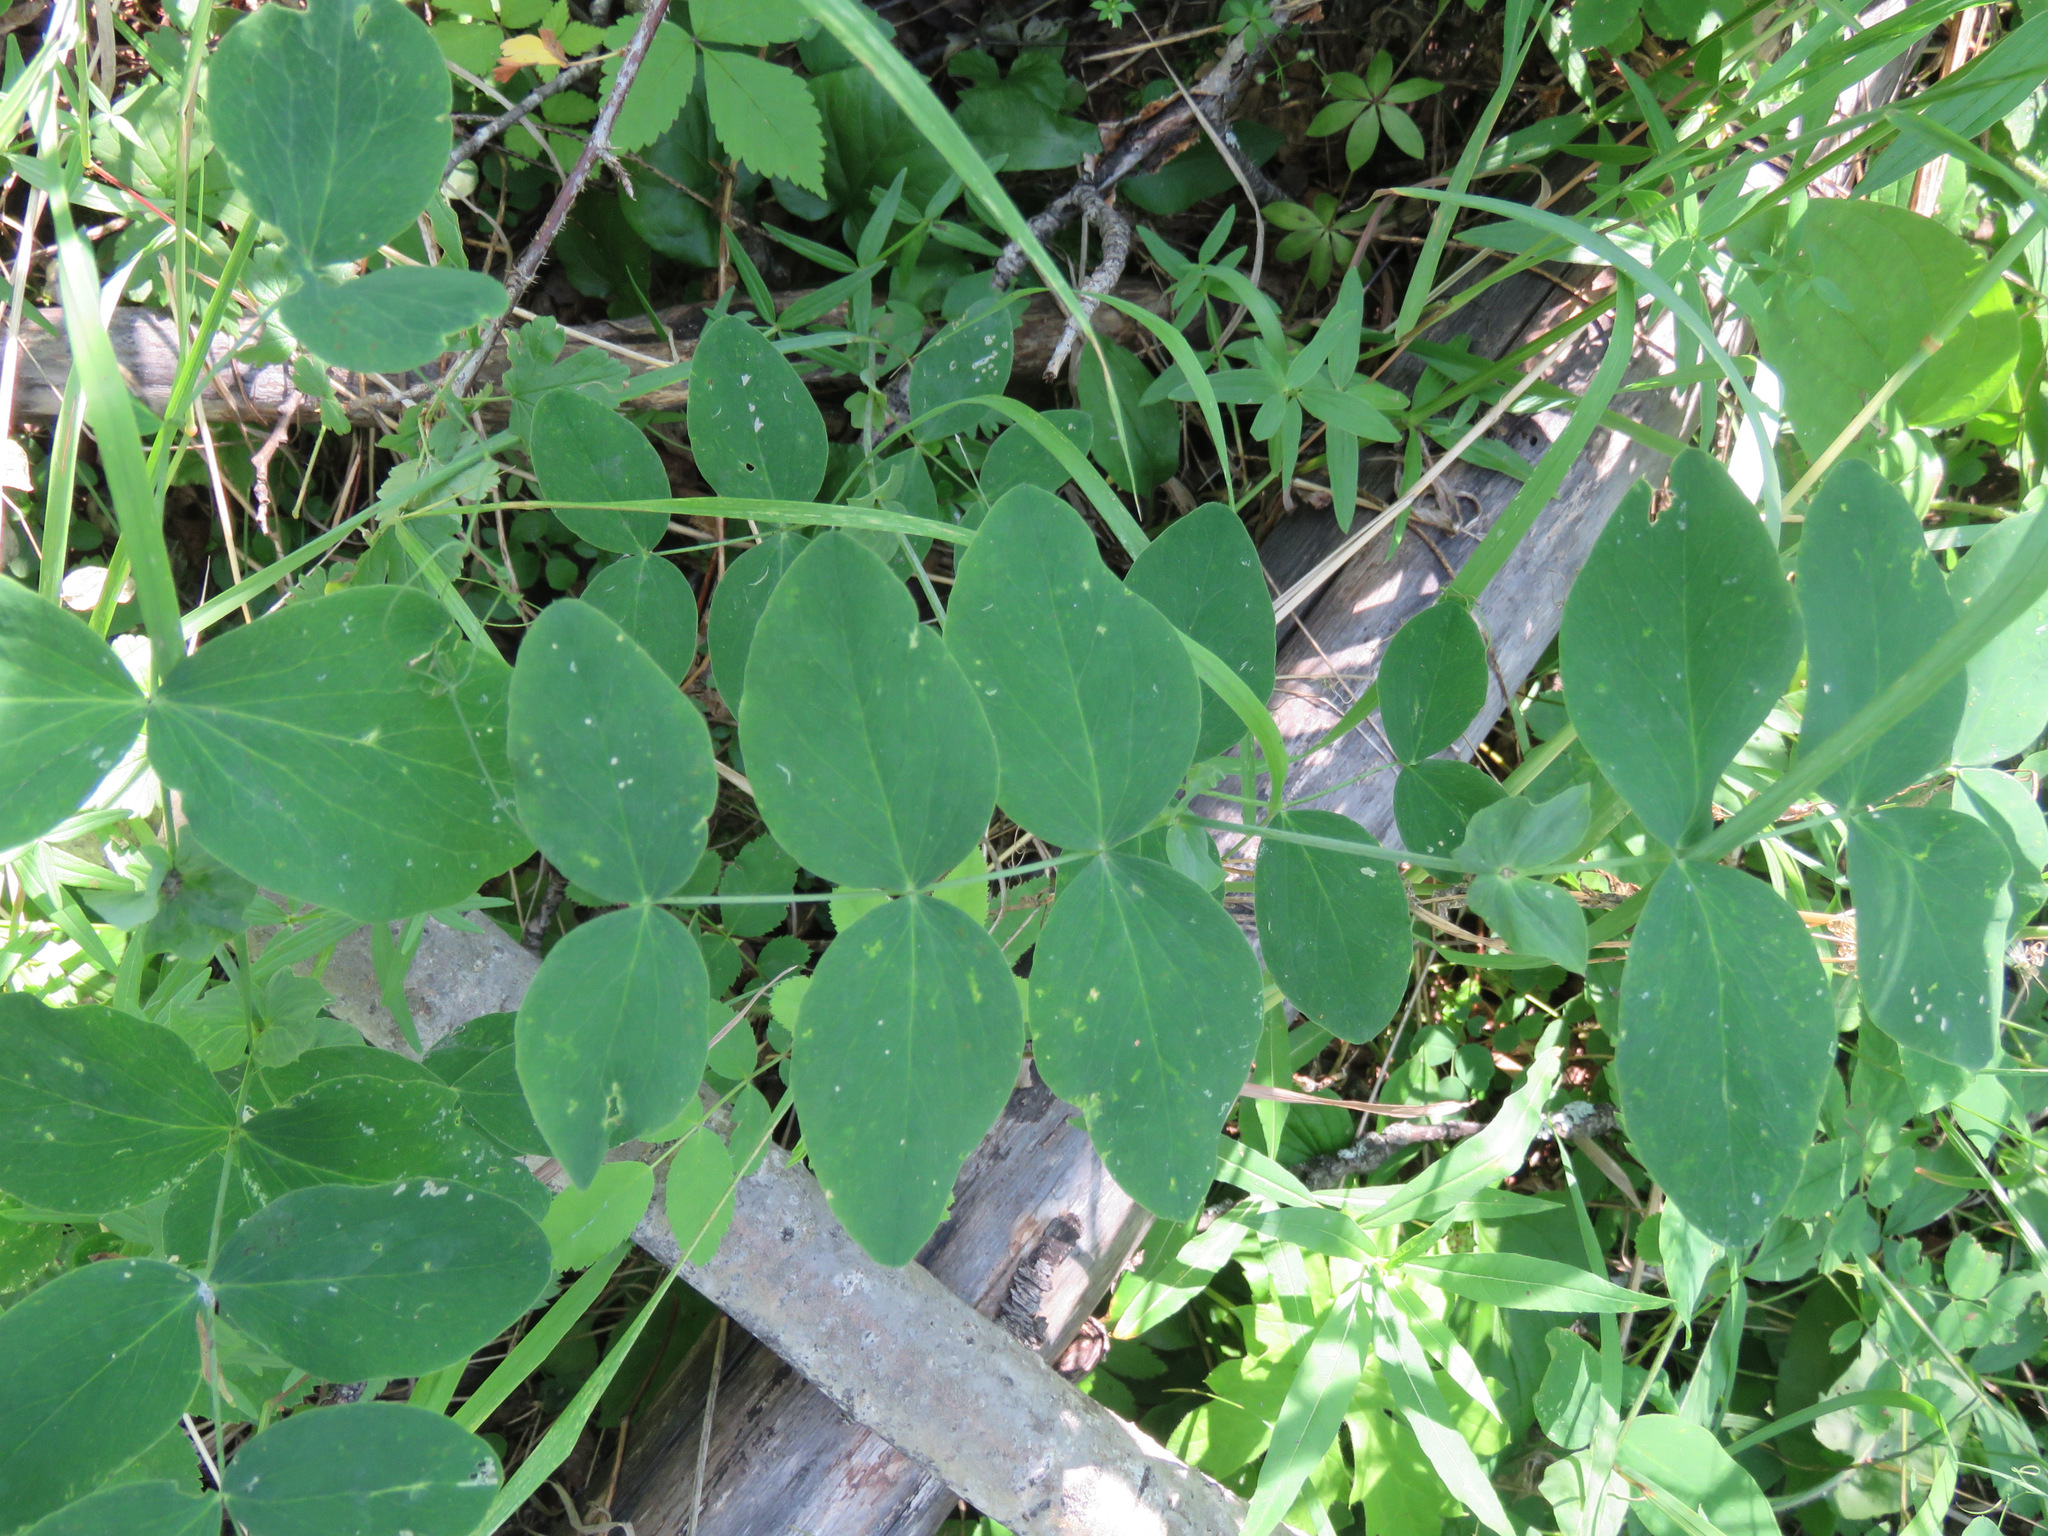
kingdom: Plantae
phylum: Tracheophyta
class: Magnoliopsida
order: Fabales
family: Fabaceae
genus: Lathyrus
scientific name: Lathyrus ochroleucus
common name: Pale vetchling
